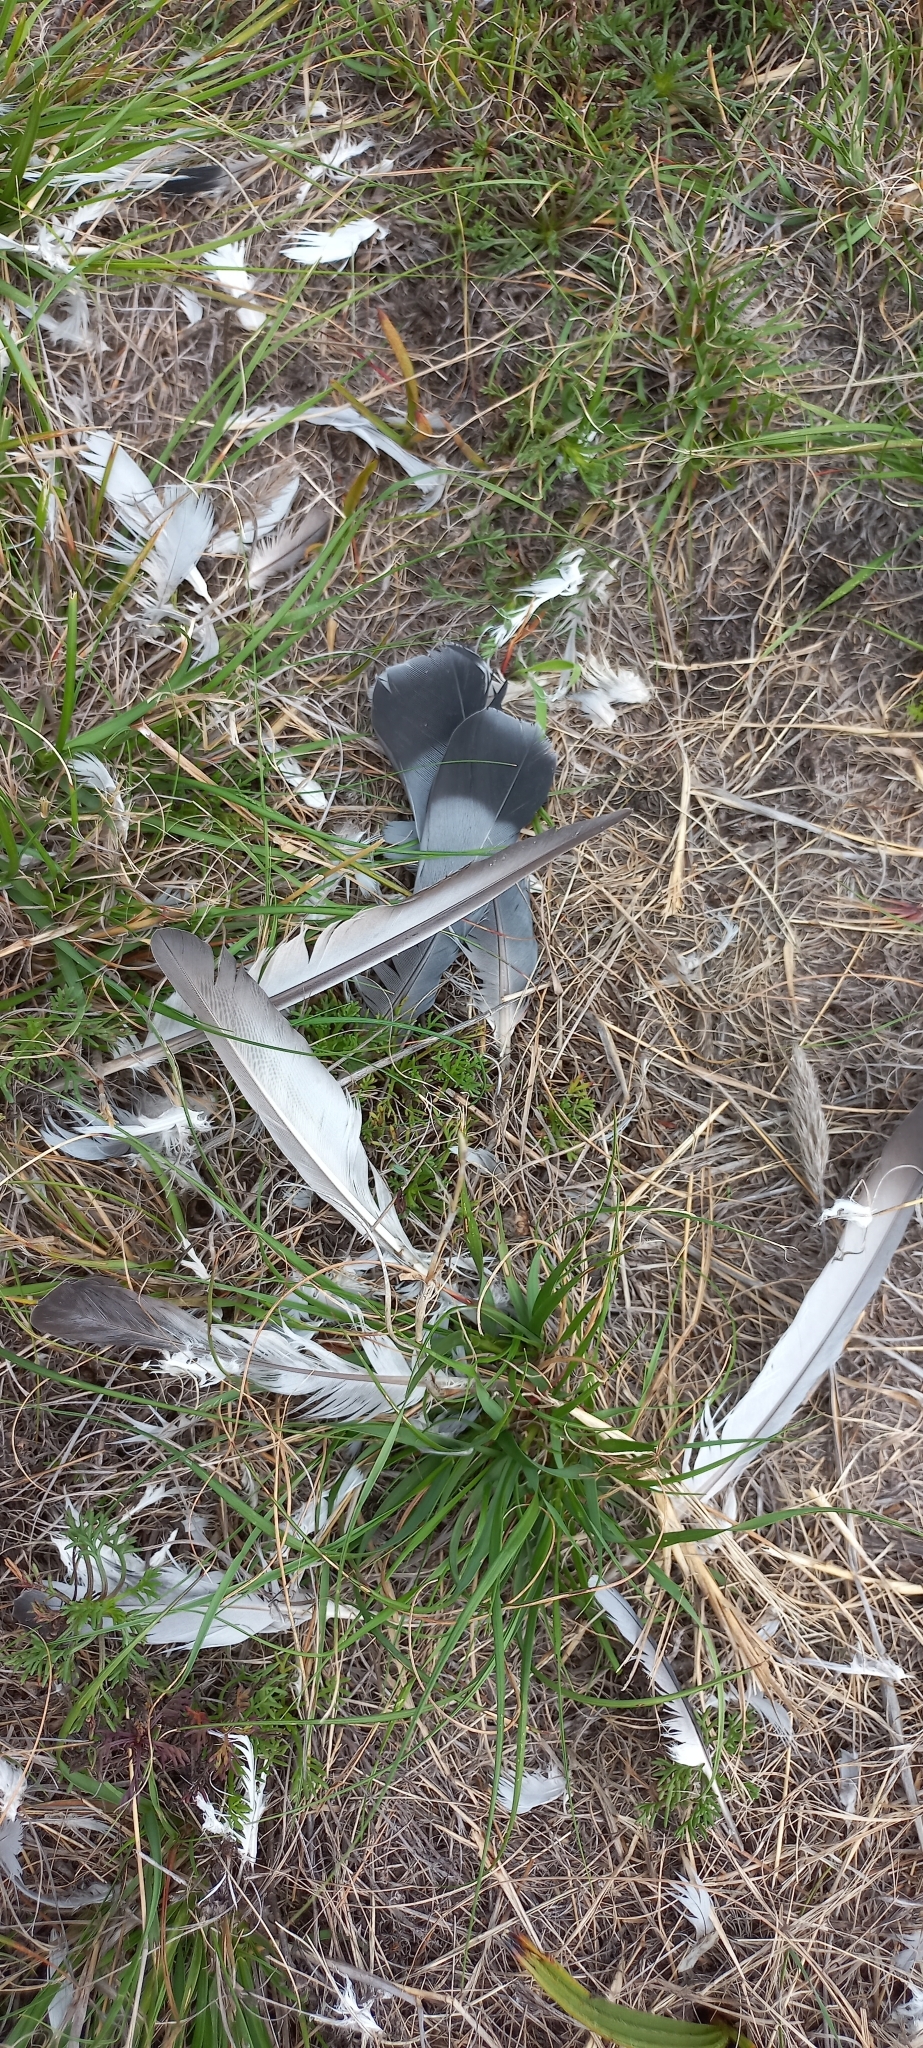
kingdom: Animalia
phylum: Chordata
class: Aves
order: Columbiformes
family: Columbidae
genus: Columba
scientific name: Columba livia
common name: Rock pigeon
